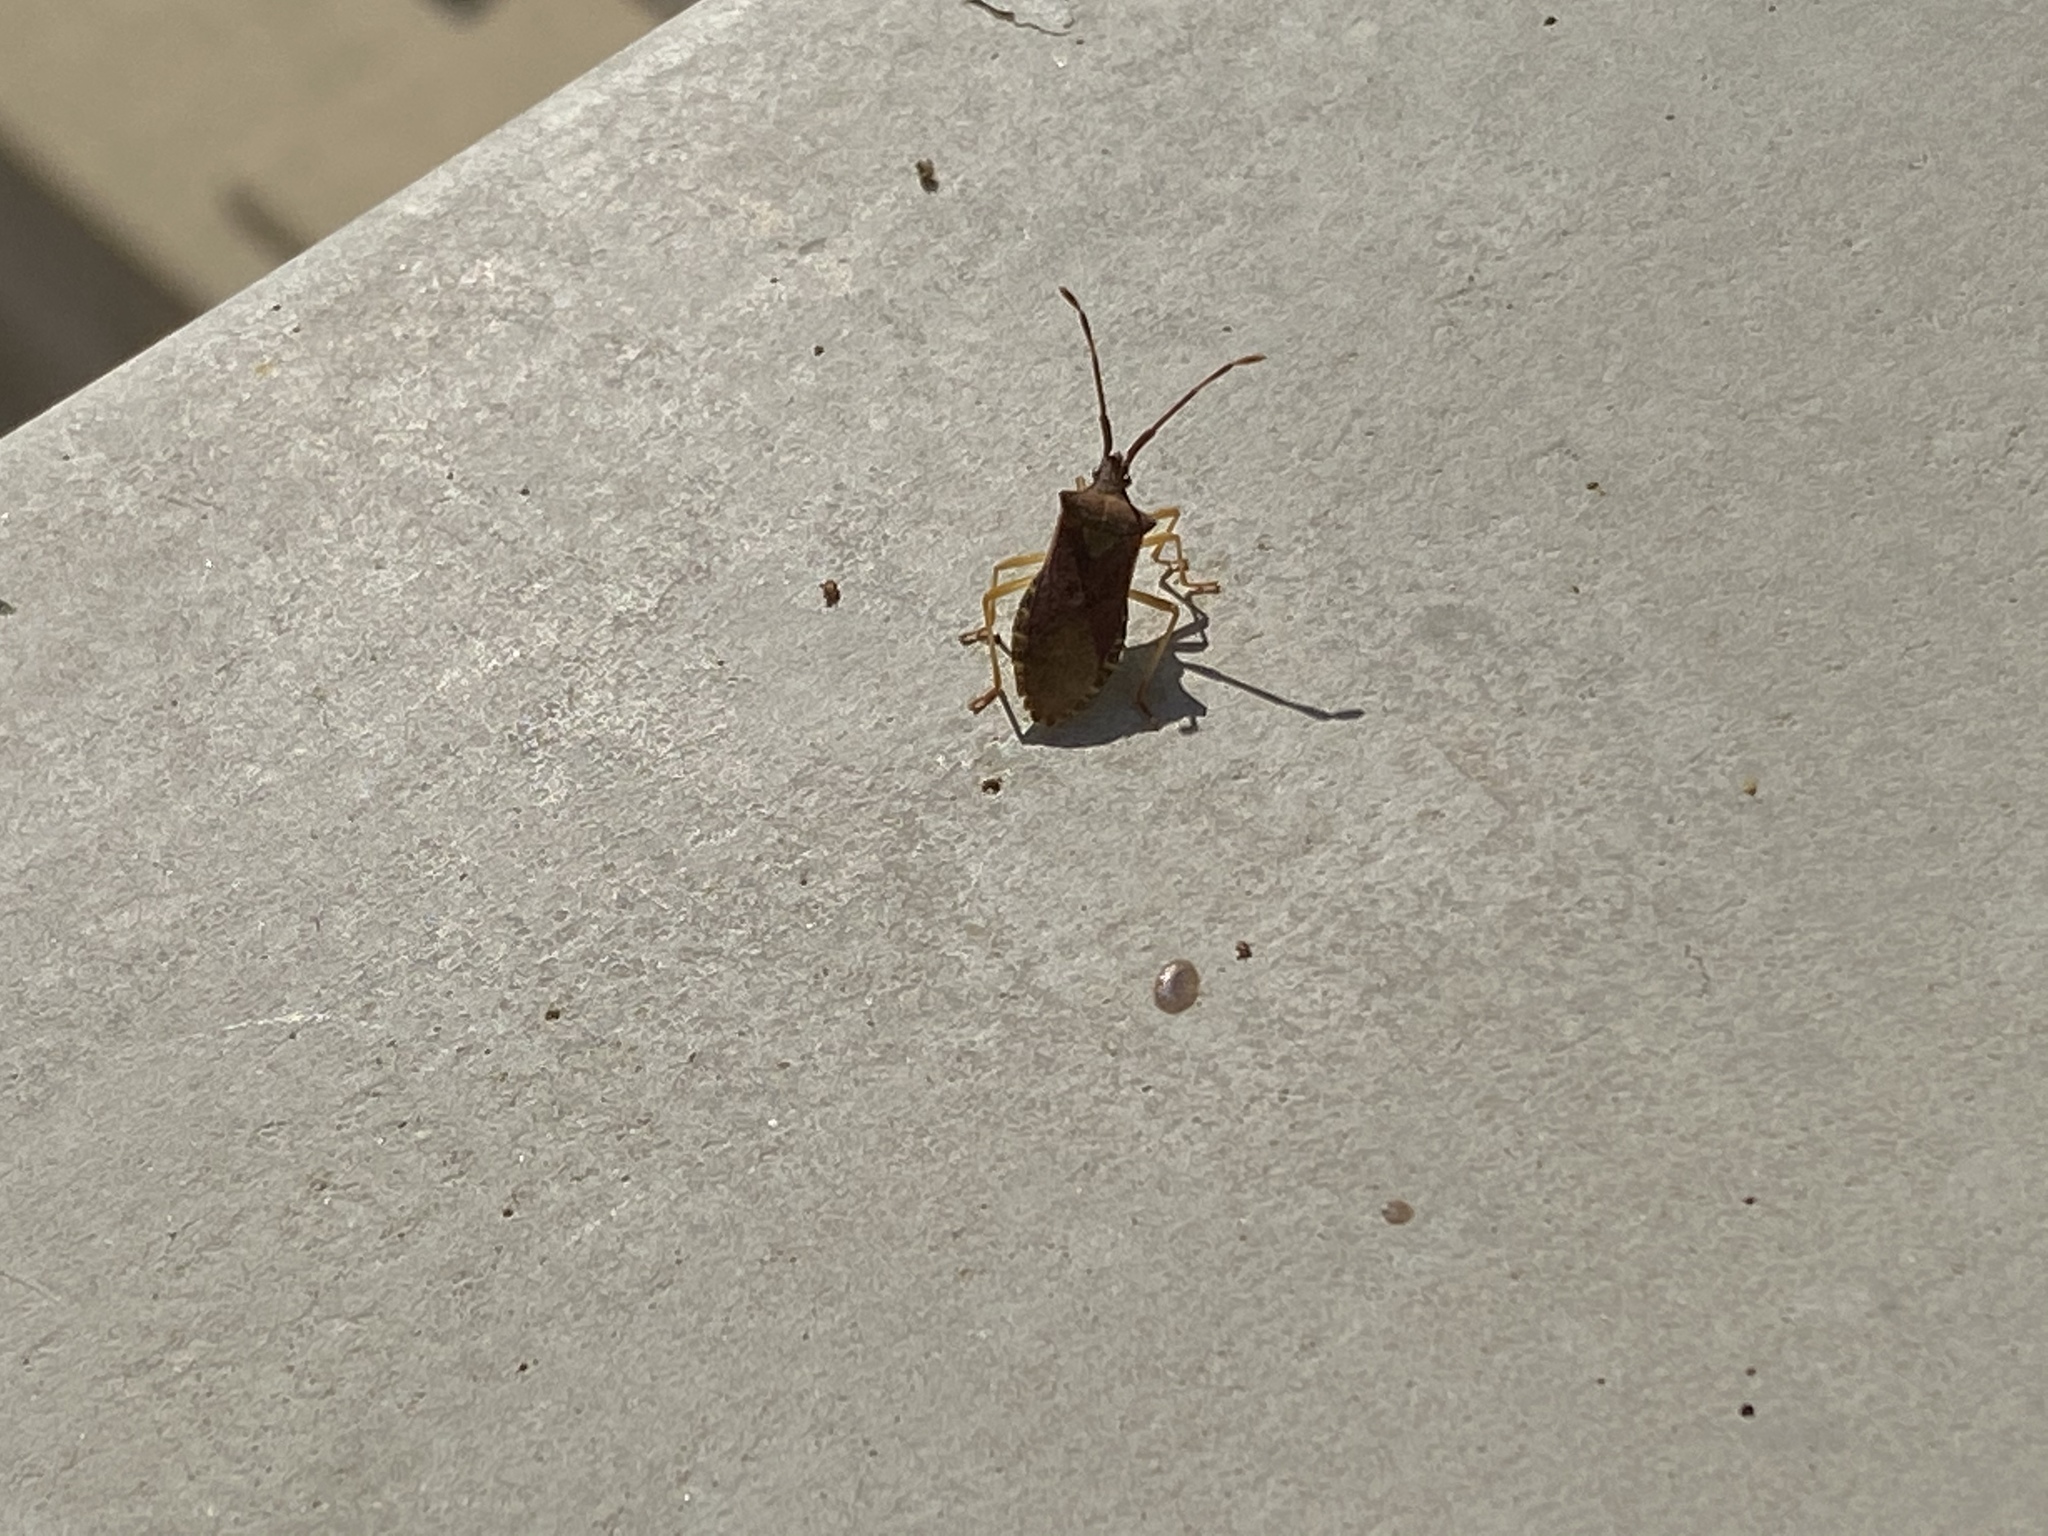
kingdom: Animalia
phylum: Arthropoda
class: Insecta
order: Hemiptera
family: Coreidae
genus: Gonocerus
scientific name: Gonocerus acuteangulatus
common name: Box bug
